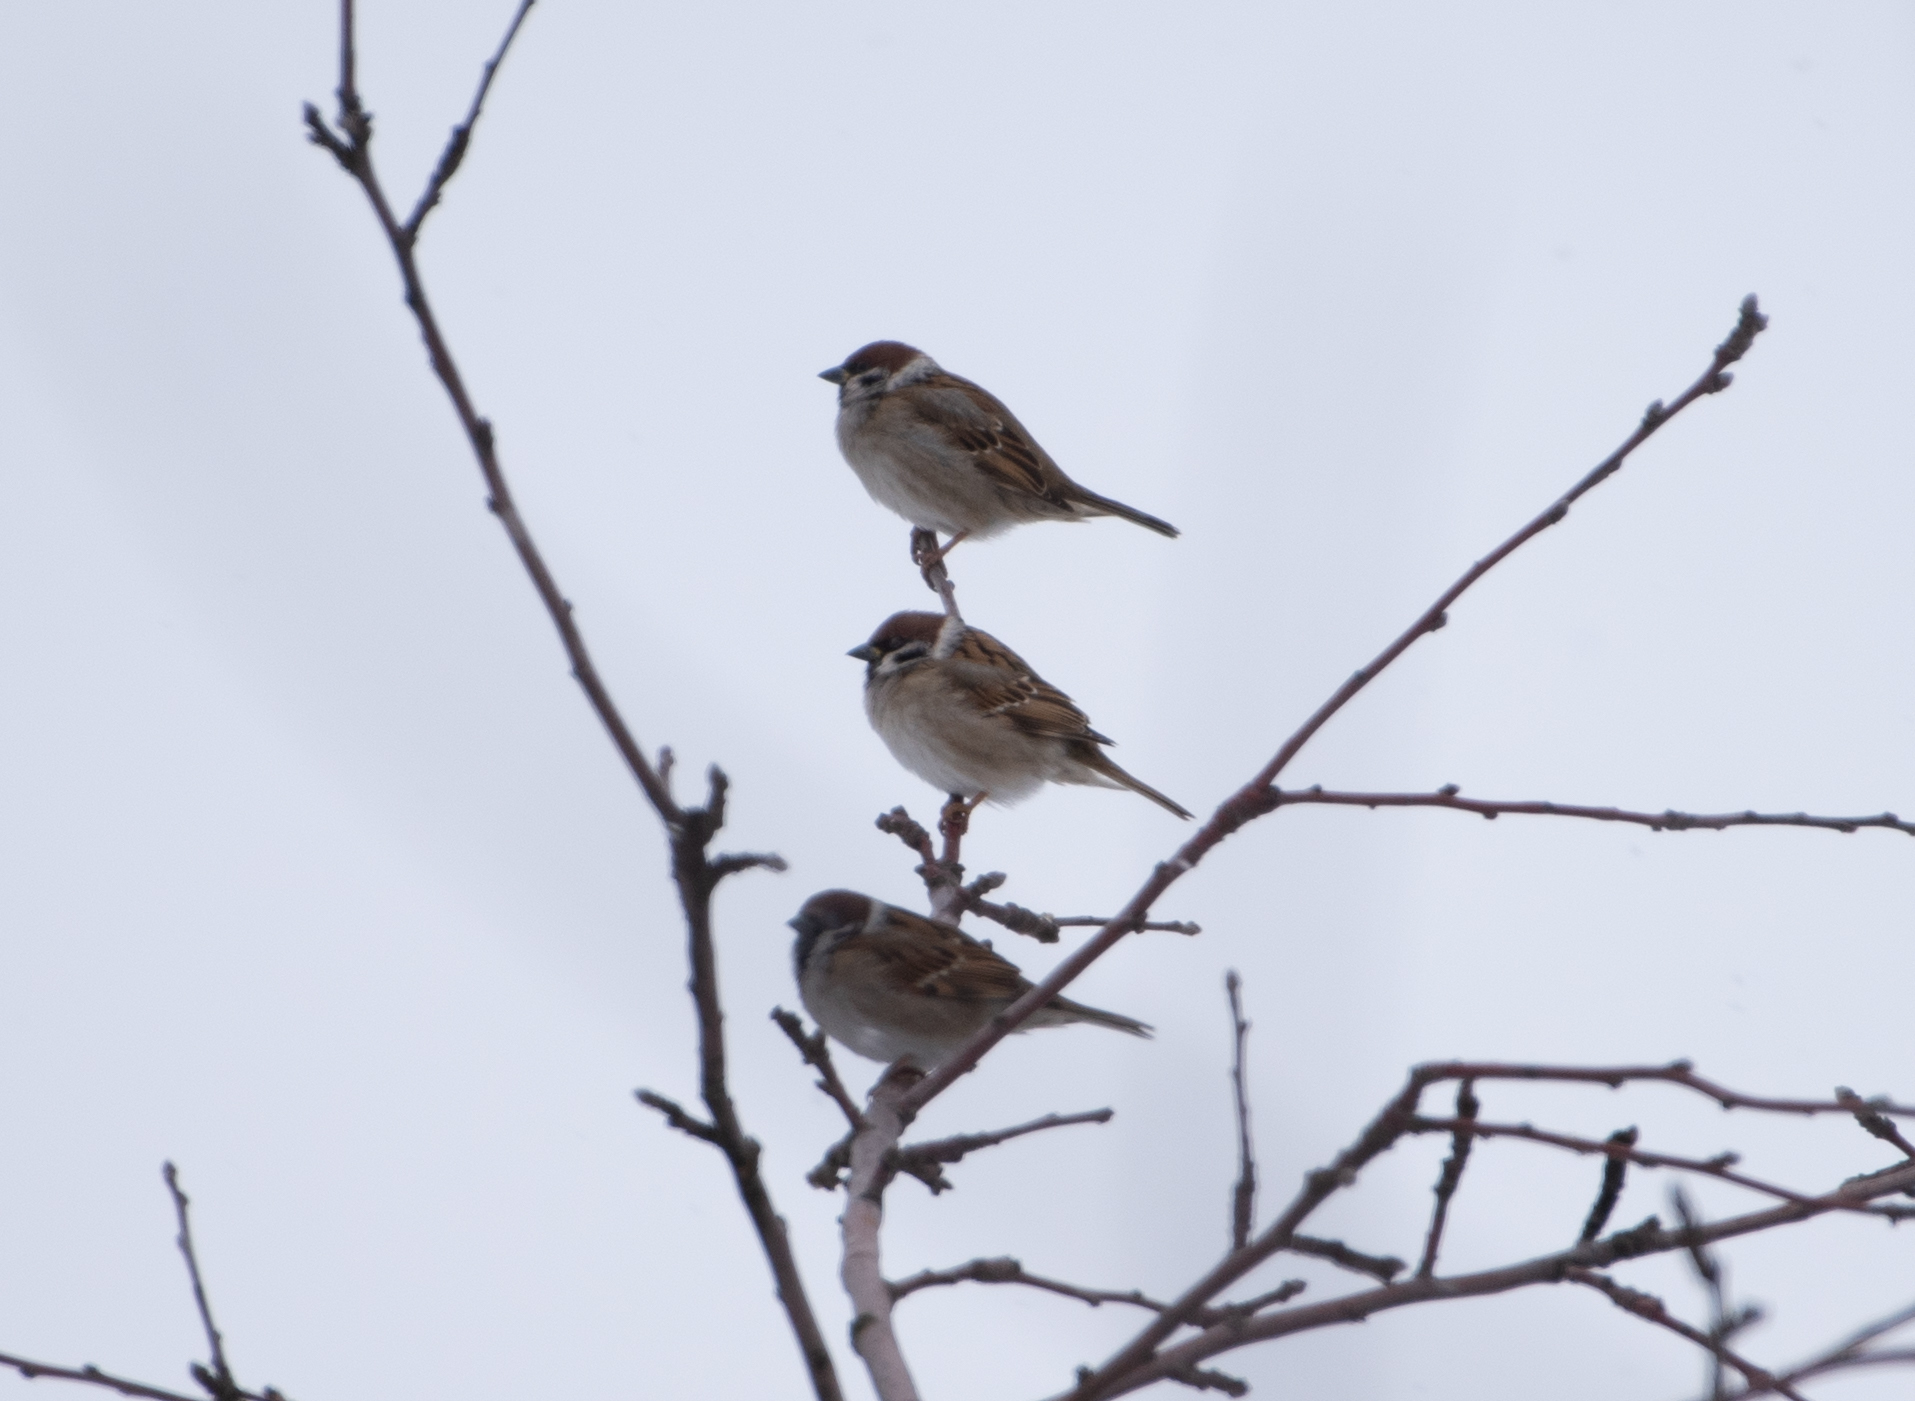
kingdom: Animalia
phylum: Chordata
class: Aves
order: Passeriformes
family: Passeridae
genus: Passer
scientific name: Passer montanus
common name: Eurasian tree sparrow
